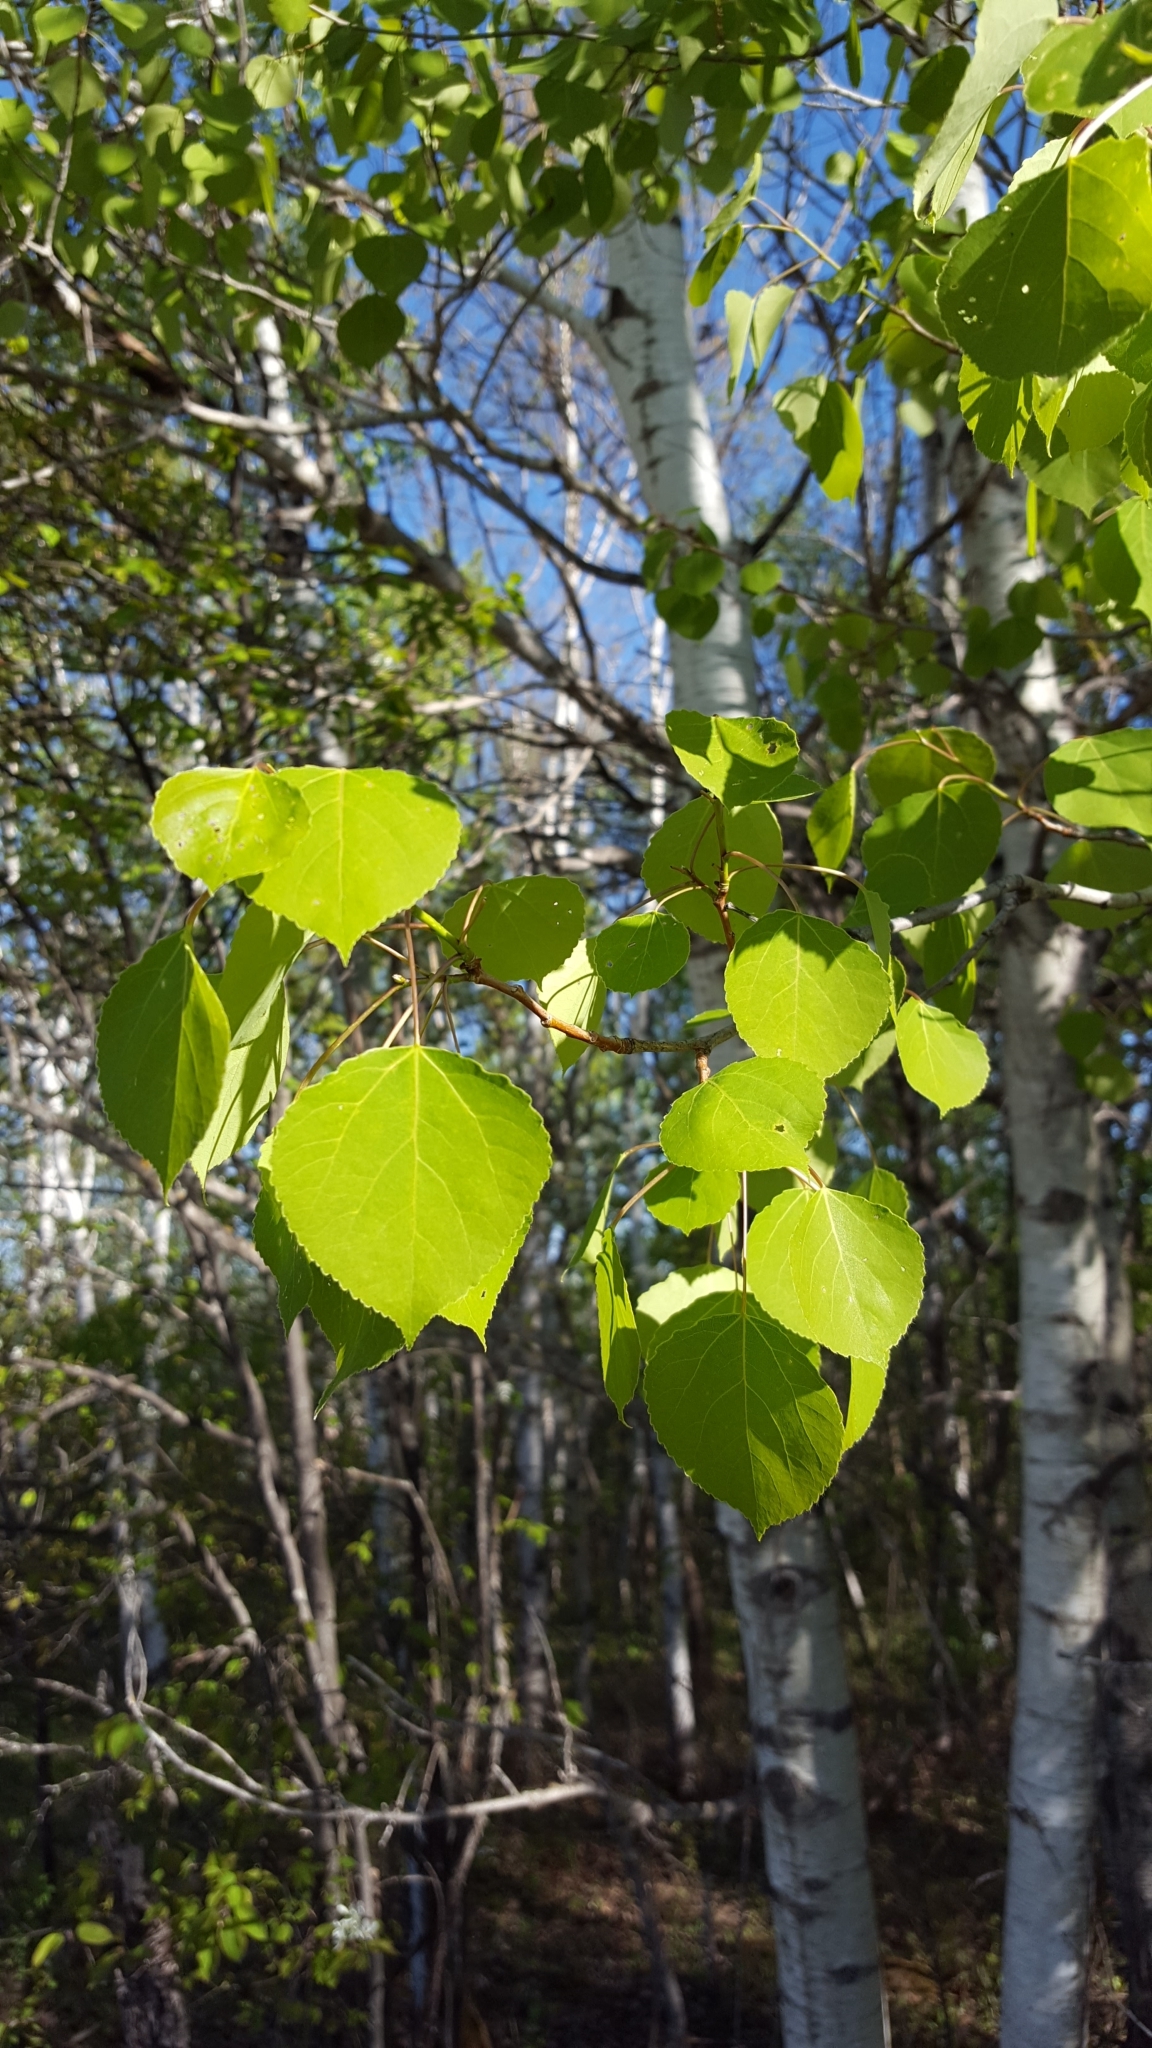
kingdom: Plantae
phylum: Tracheophyta
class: Magnoliopsida
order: Malpighiales
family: Salicaceae
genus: Populus
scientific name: Populus tremuloides
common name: Quaking aspen
